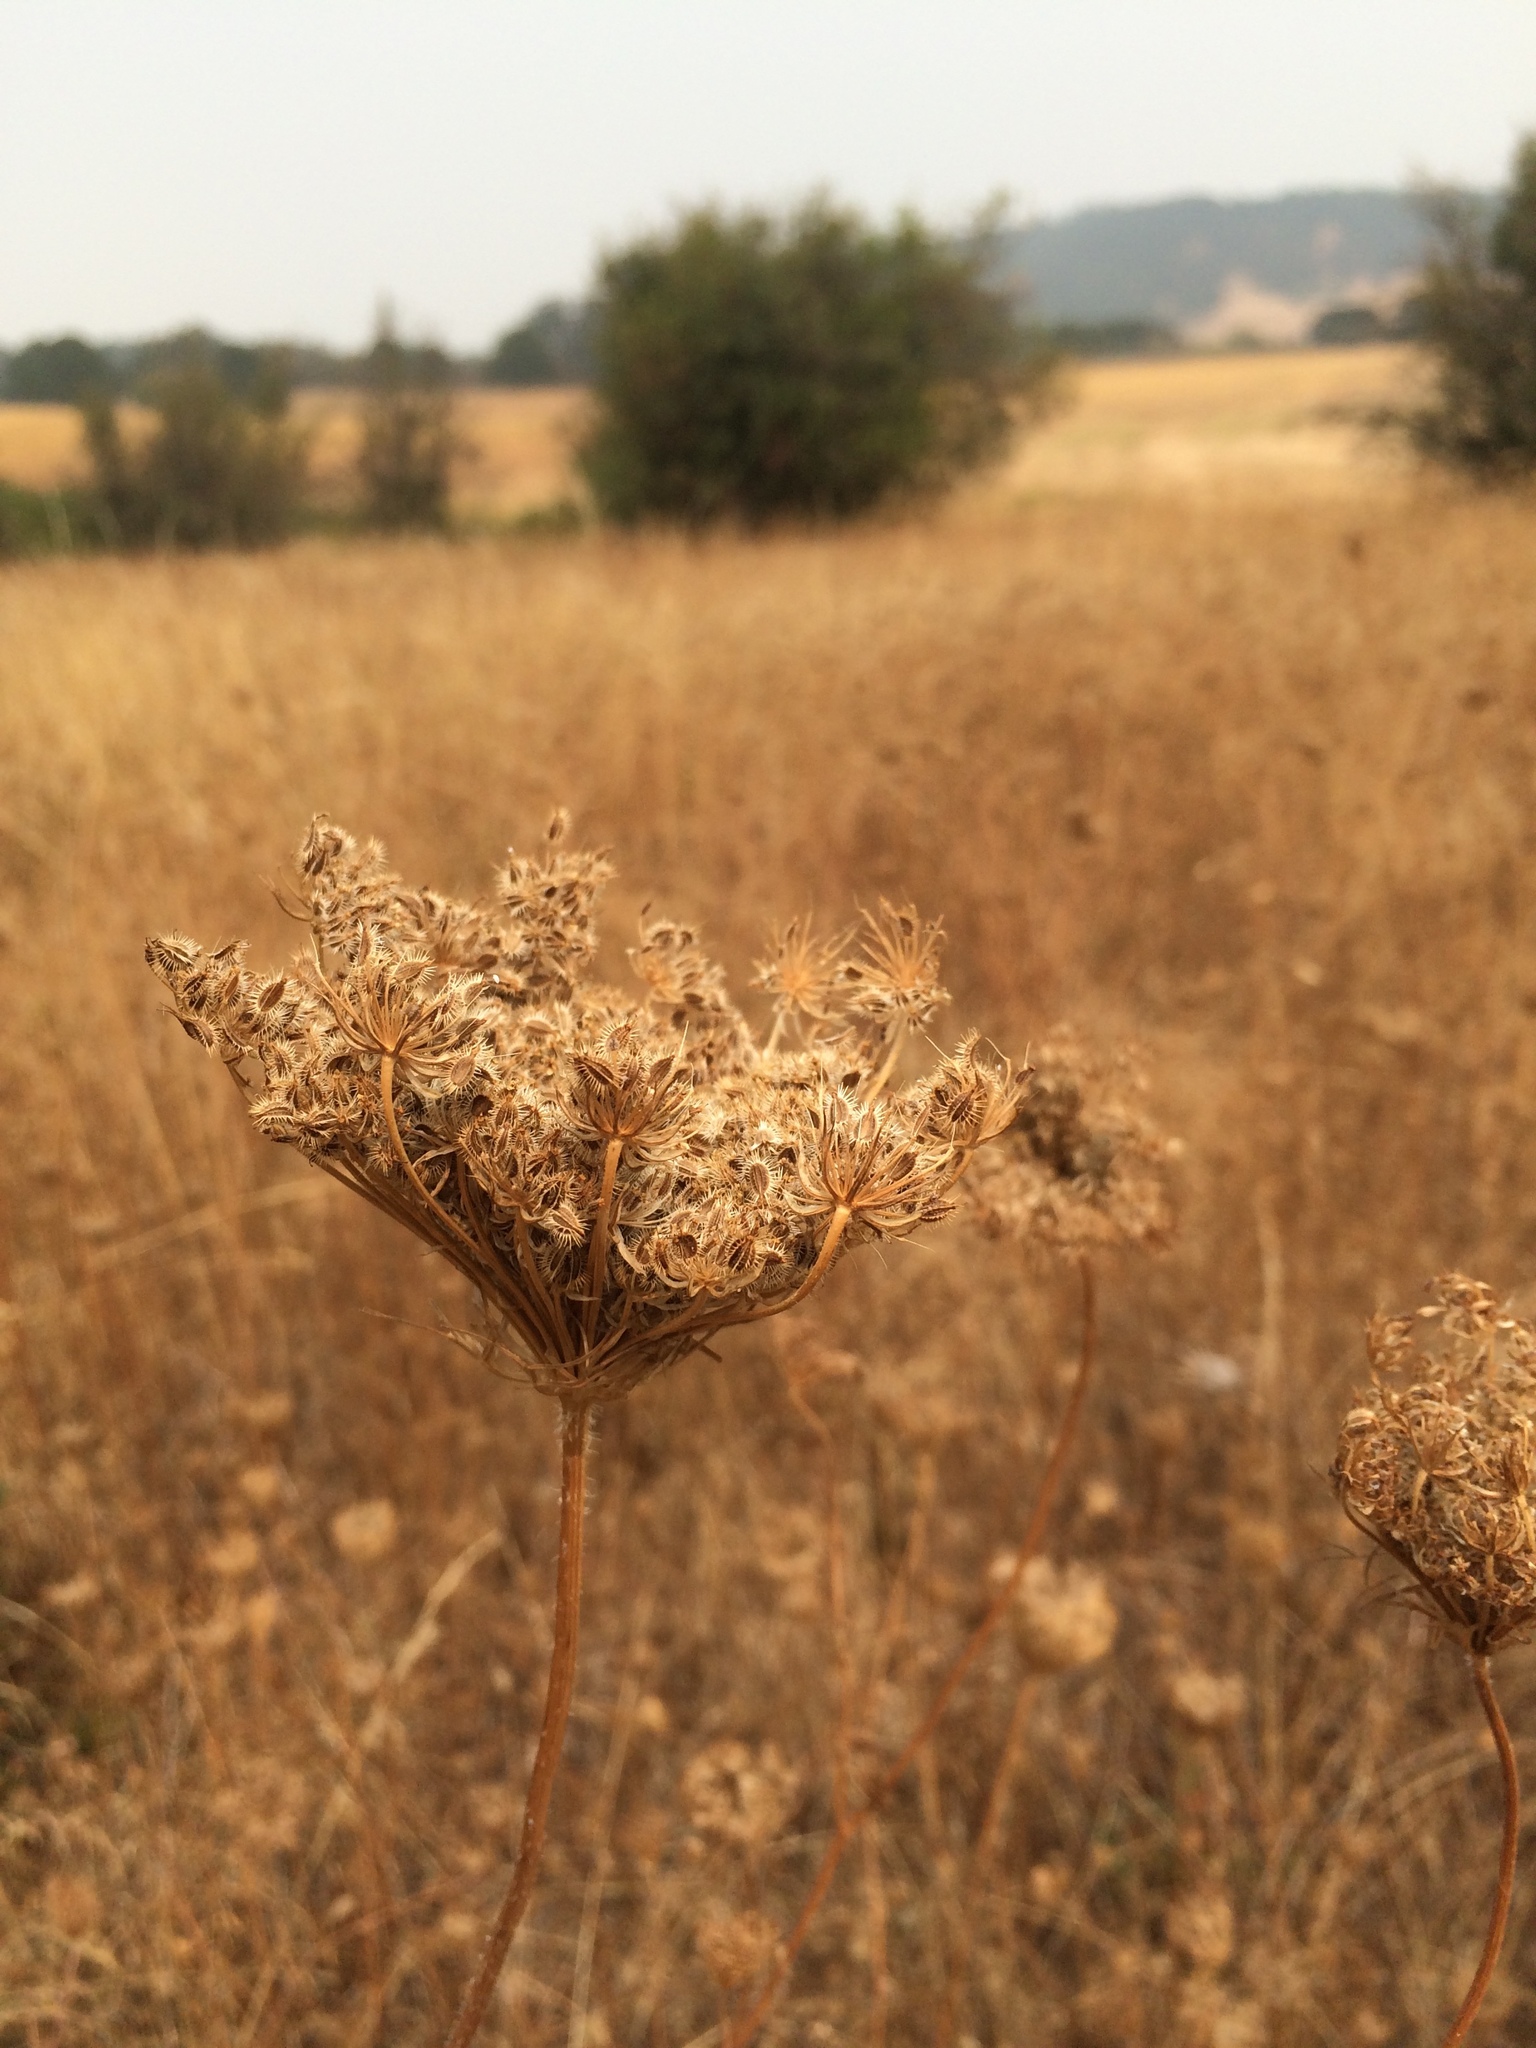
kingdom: Plantae
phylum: Tracheophyta
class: Magnoliopsida
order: Apiales
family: Apiaceae
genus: Daucus
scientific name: Daucus carota
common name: Wild carrot
